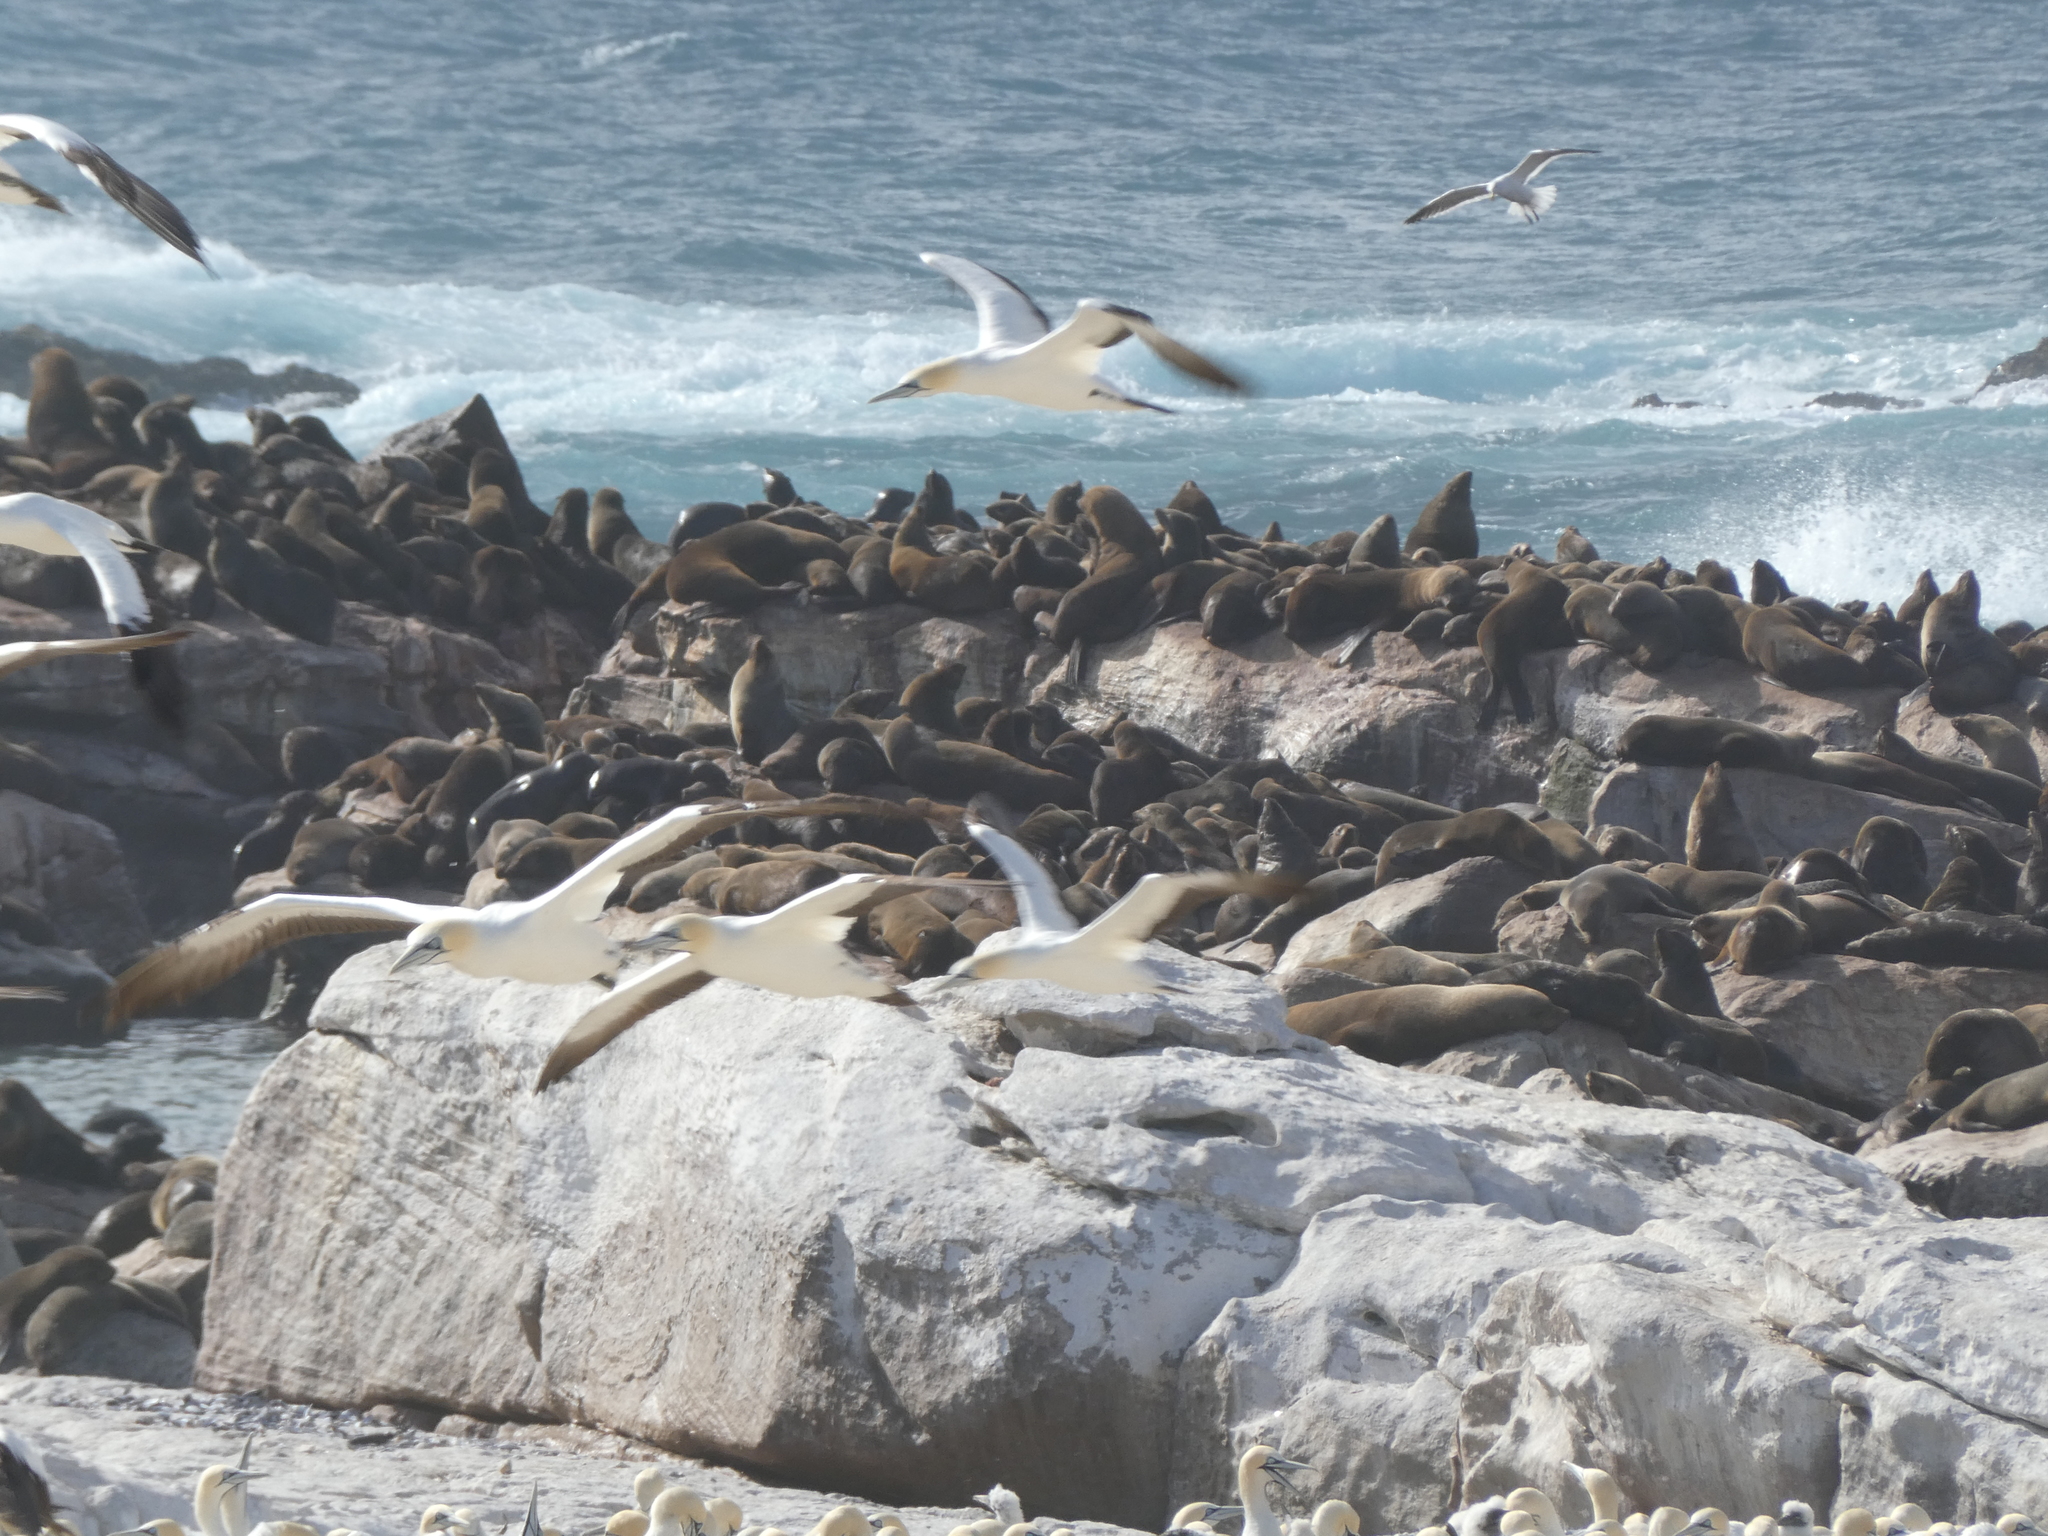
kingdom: Animalia
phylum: Chordata
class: Mammalia
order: Carnivora
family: Otariidae
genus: Arctocephalus
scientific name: Arctocephalus pusillus
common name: Brown fur seal
